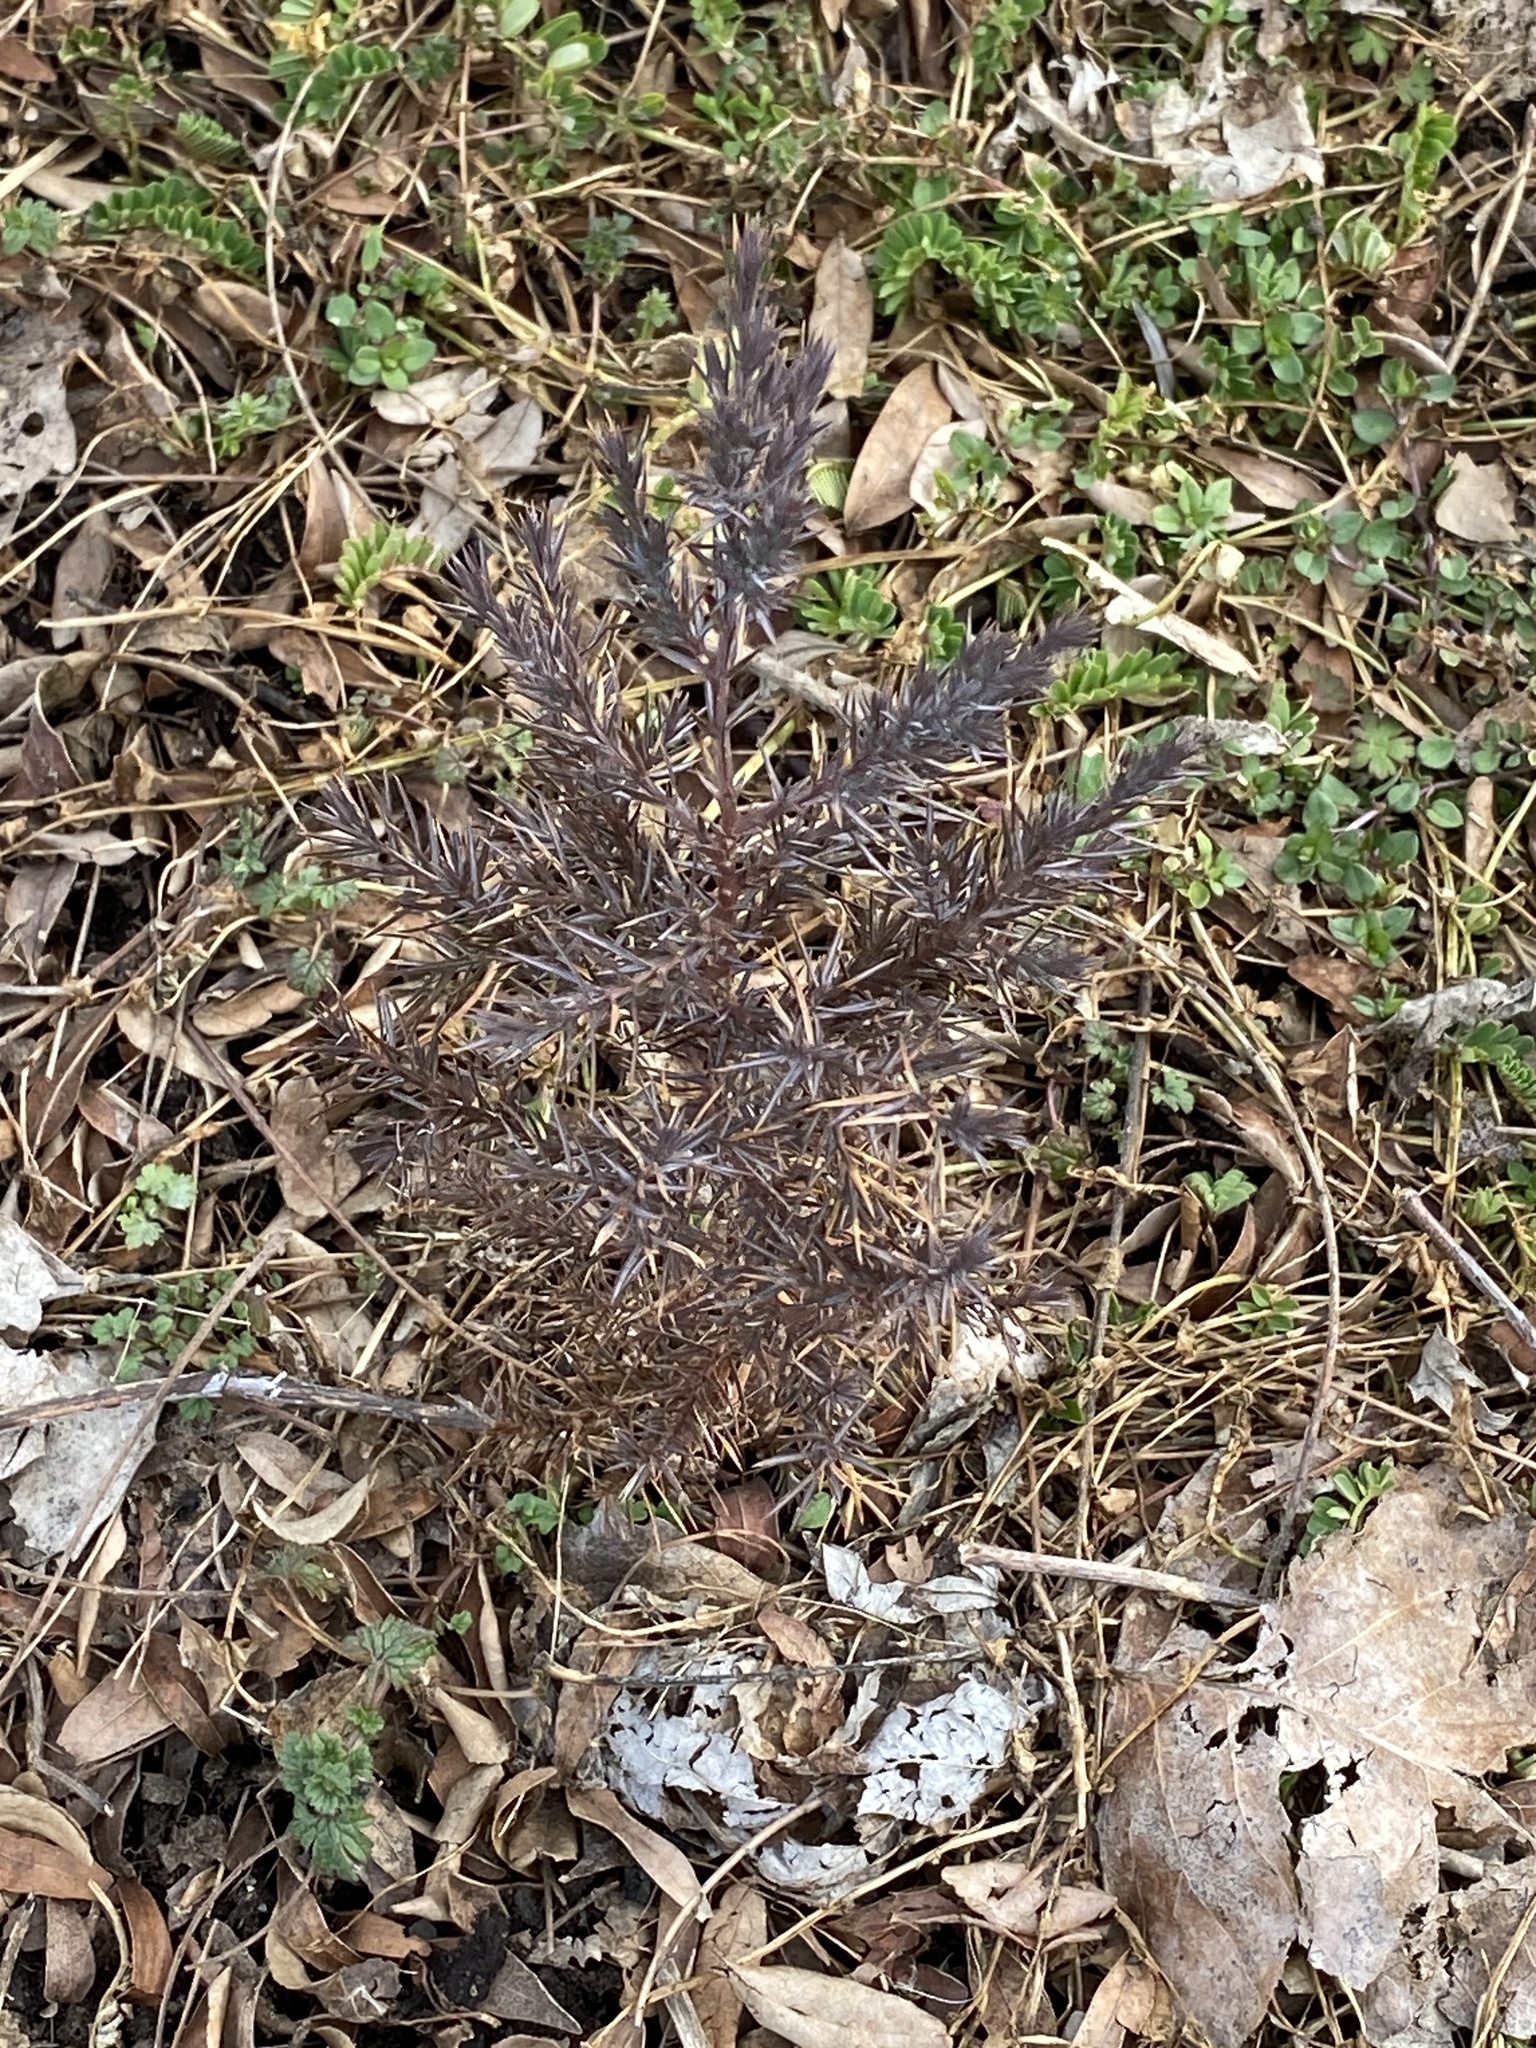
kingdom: Plantae
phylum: Tracheophyta
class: Pinopsida
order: Pinales
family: Cupressaceae
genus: Juniperus
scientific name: Juniperus virginiana
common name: Red juniper
